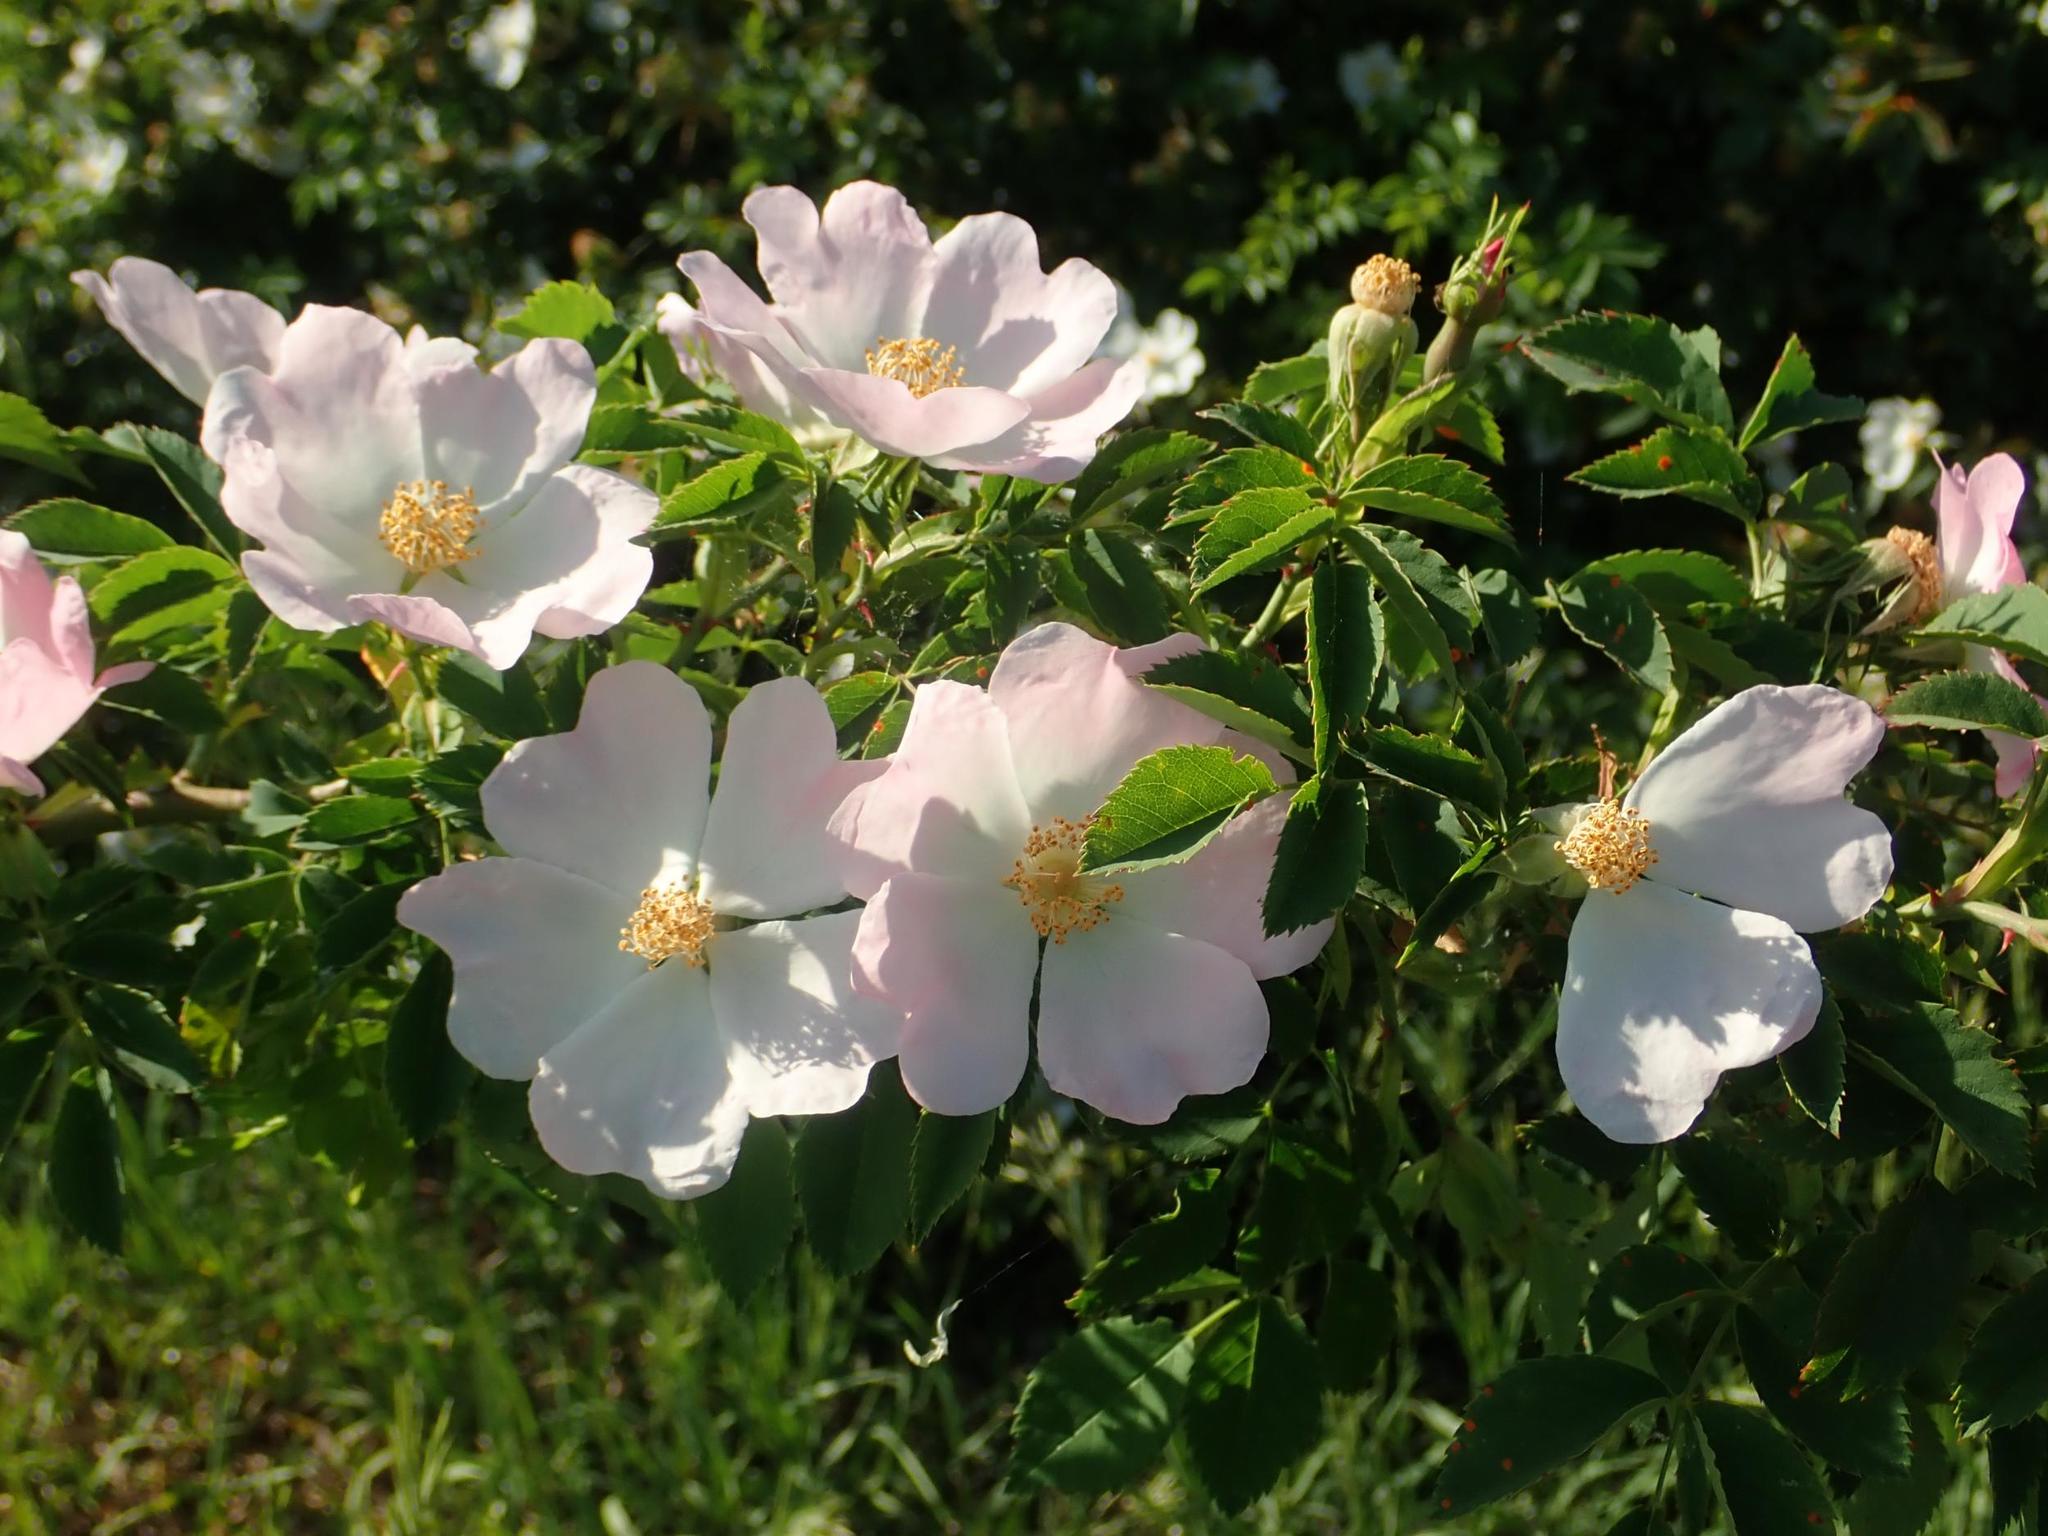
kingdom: Plantae
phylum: Tracheophyta
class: Magnoliopsida
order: Rosales
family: Rosaceae
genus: Rosa
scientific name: Rosa canina
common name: Dog rose
